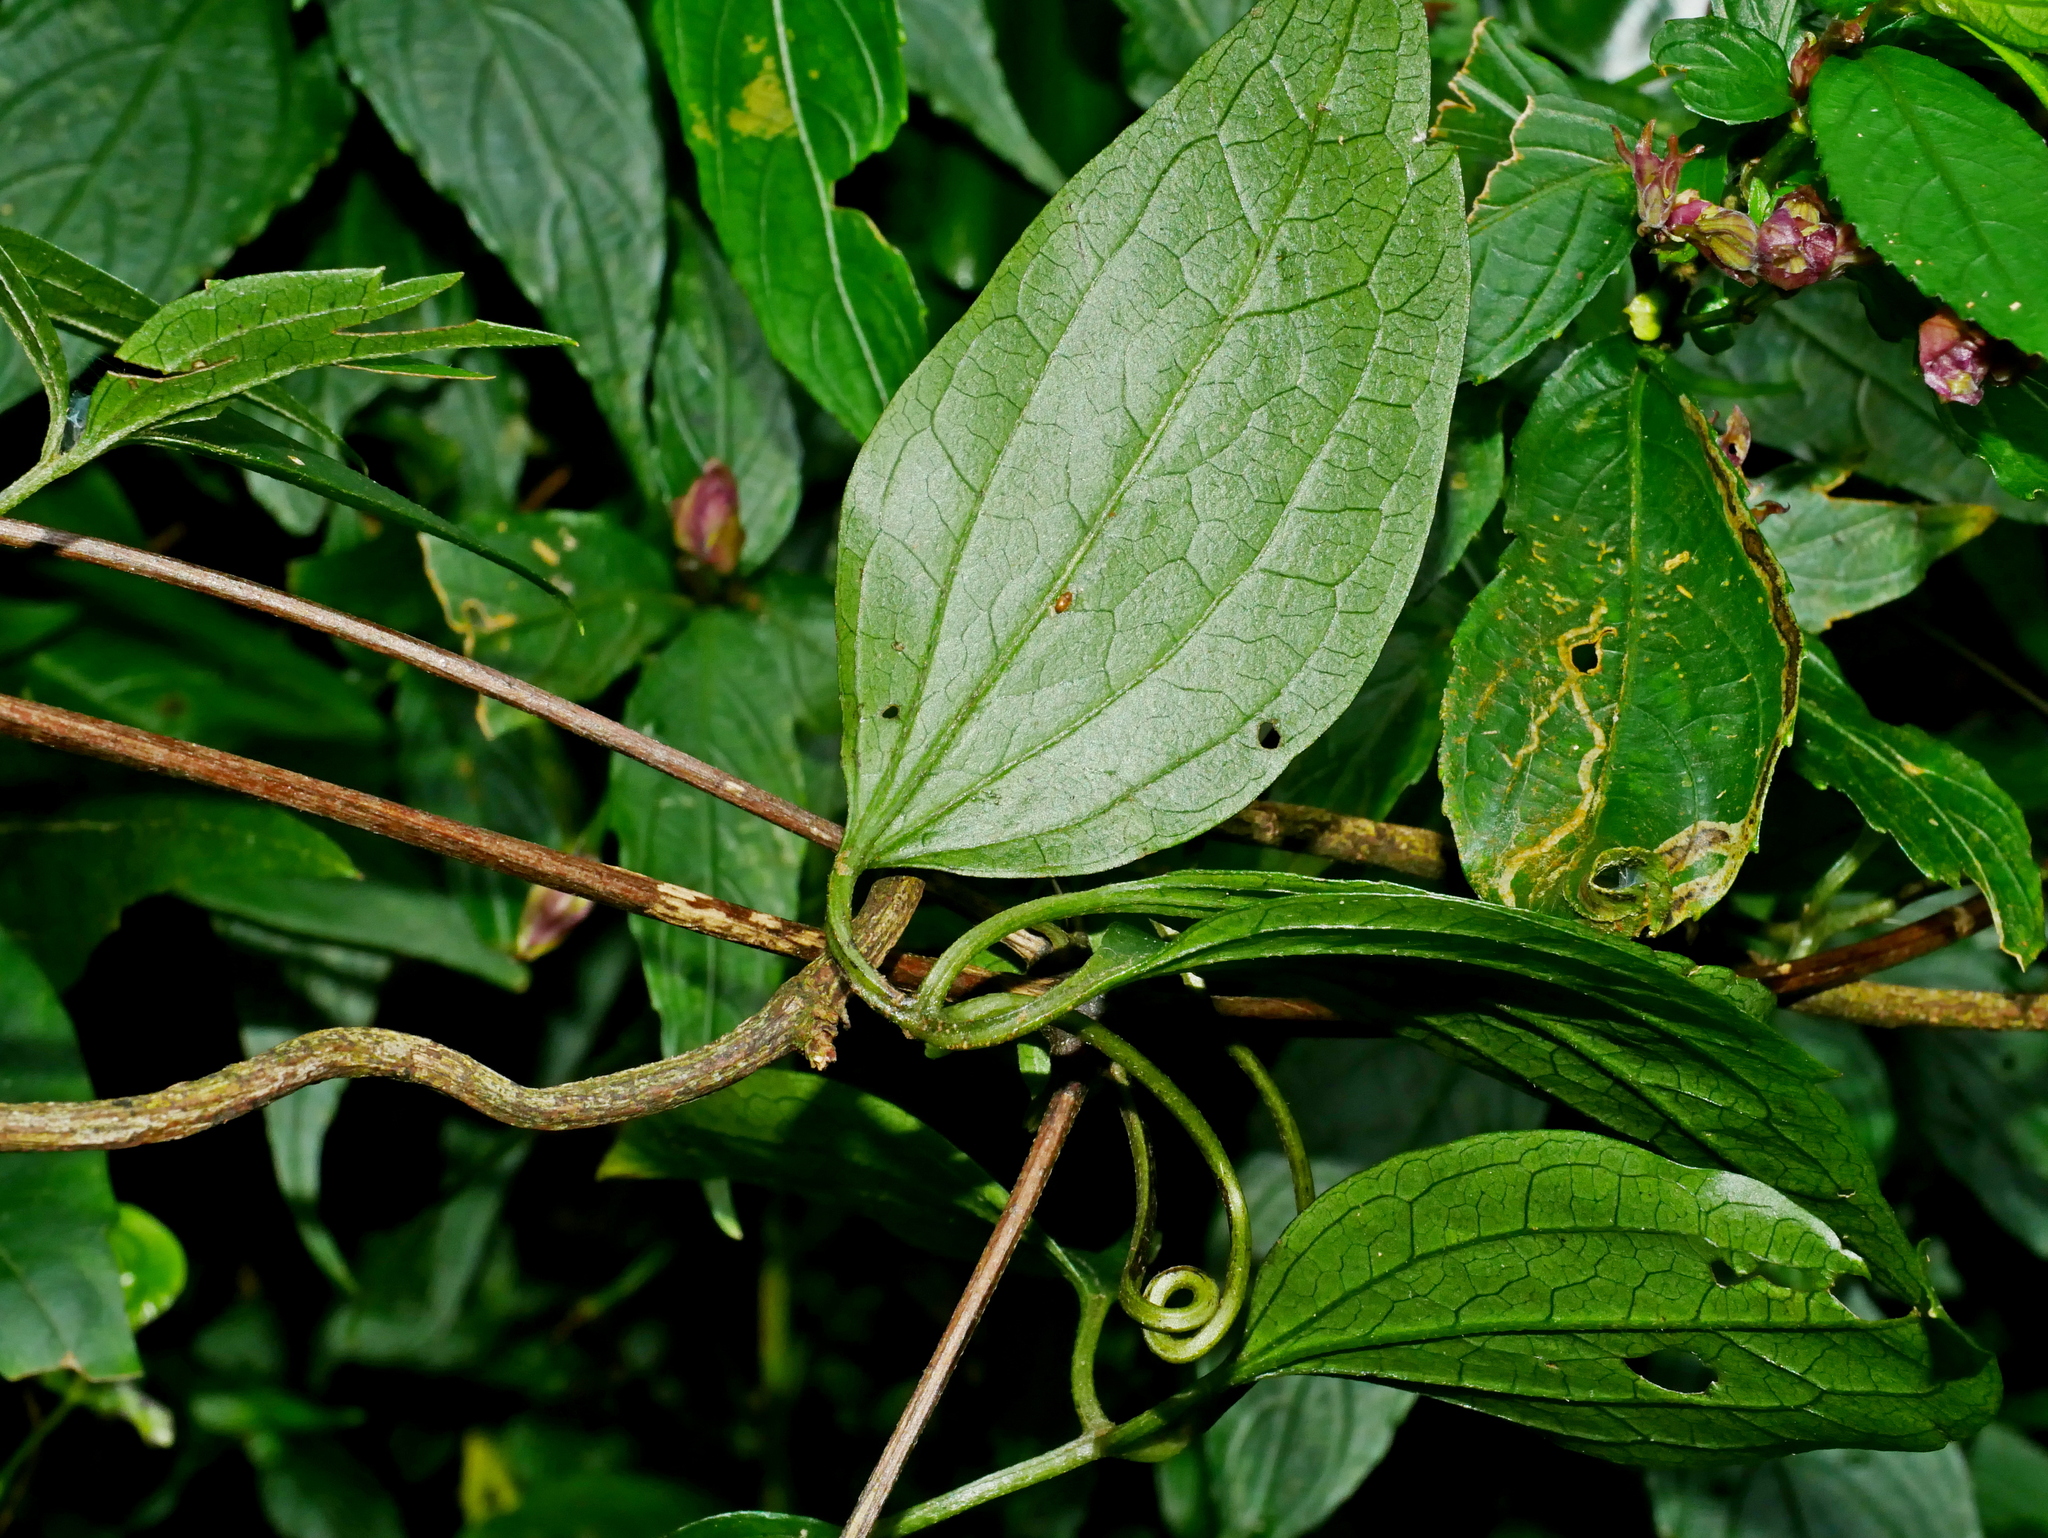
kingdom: Plantae
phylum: Tracheophyta
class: Magnoliopsida
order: Ranunculales
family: Ranunculaceae
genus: Clematis
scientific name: Clematis formosana
